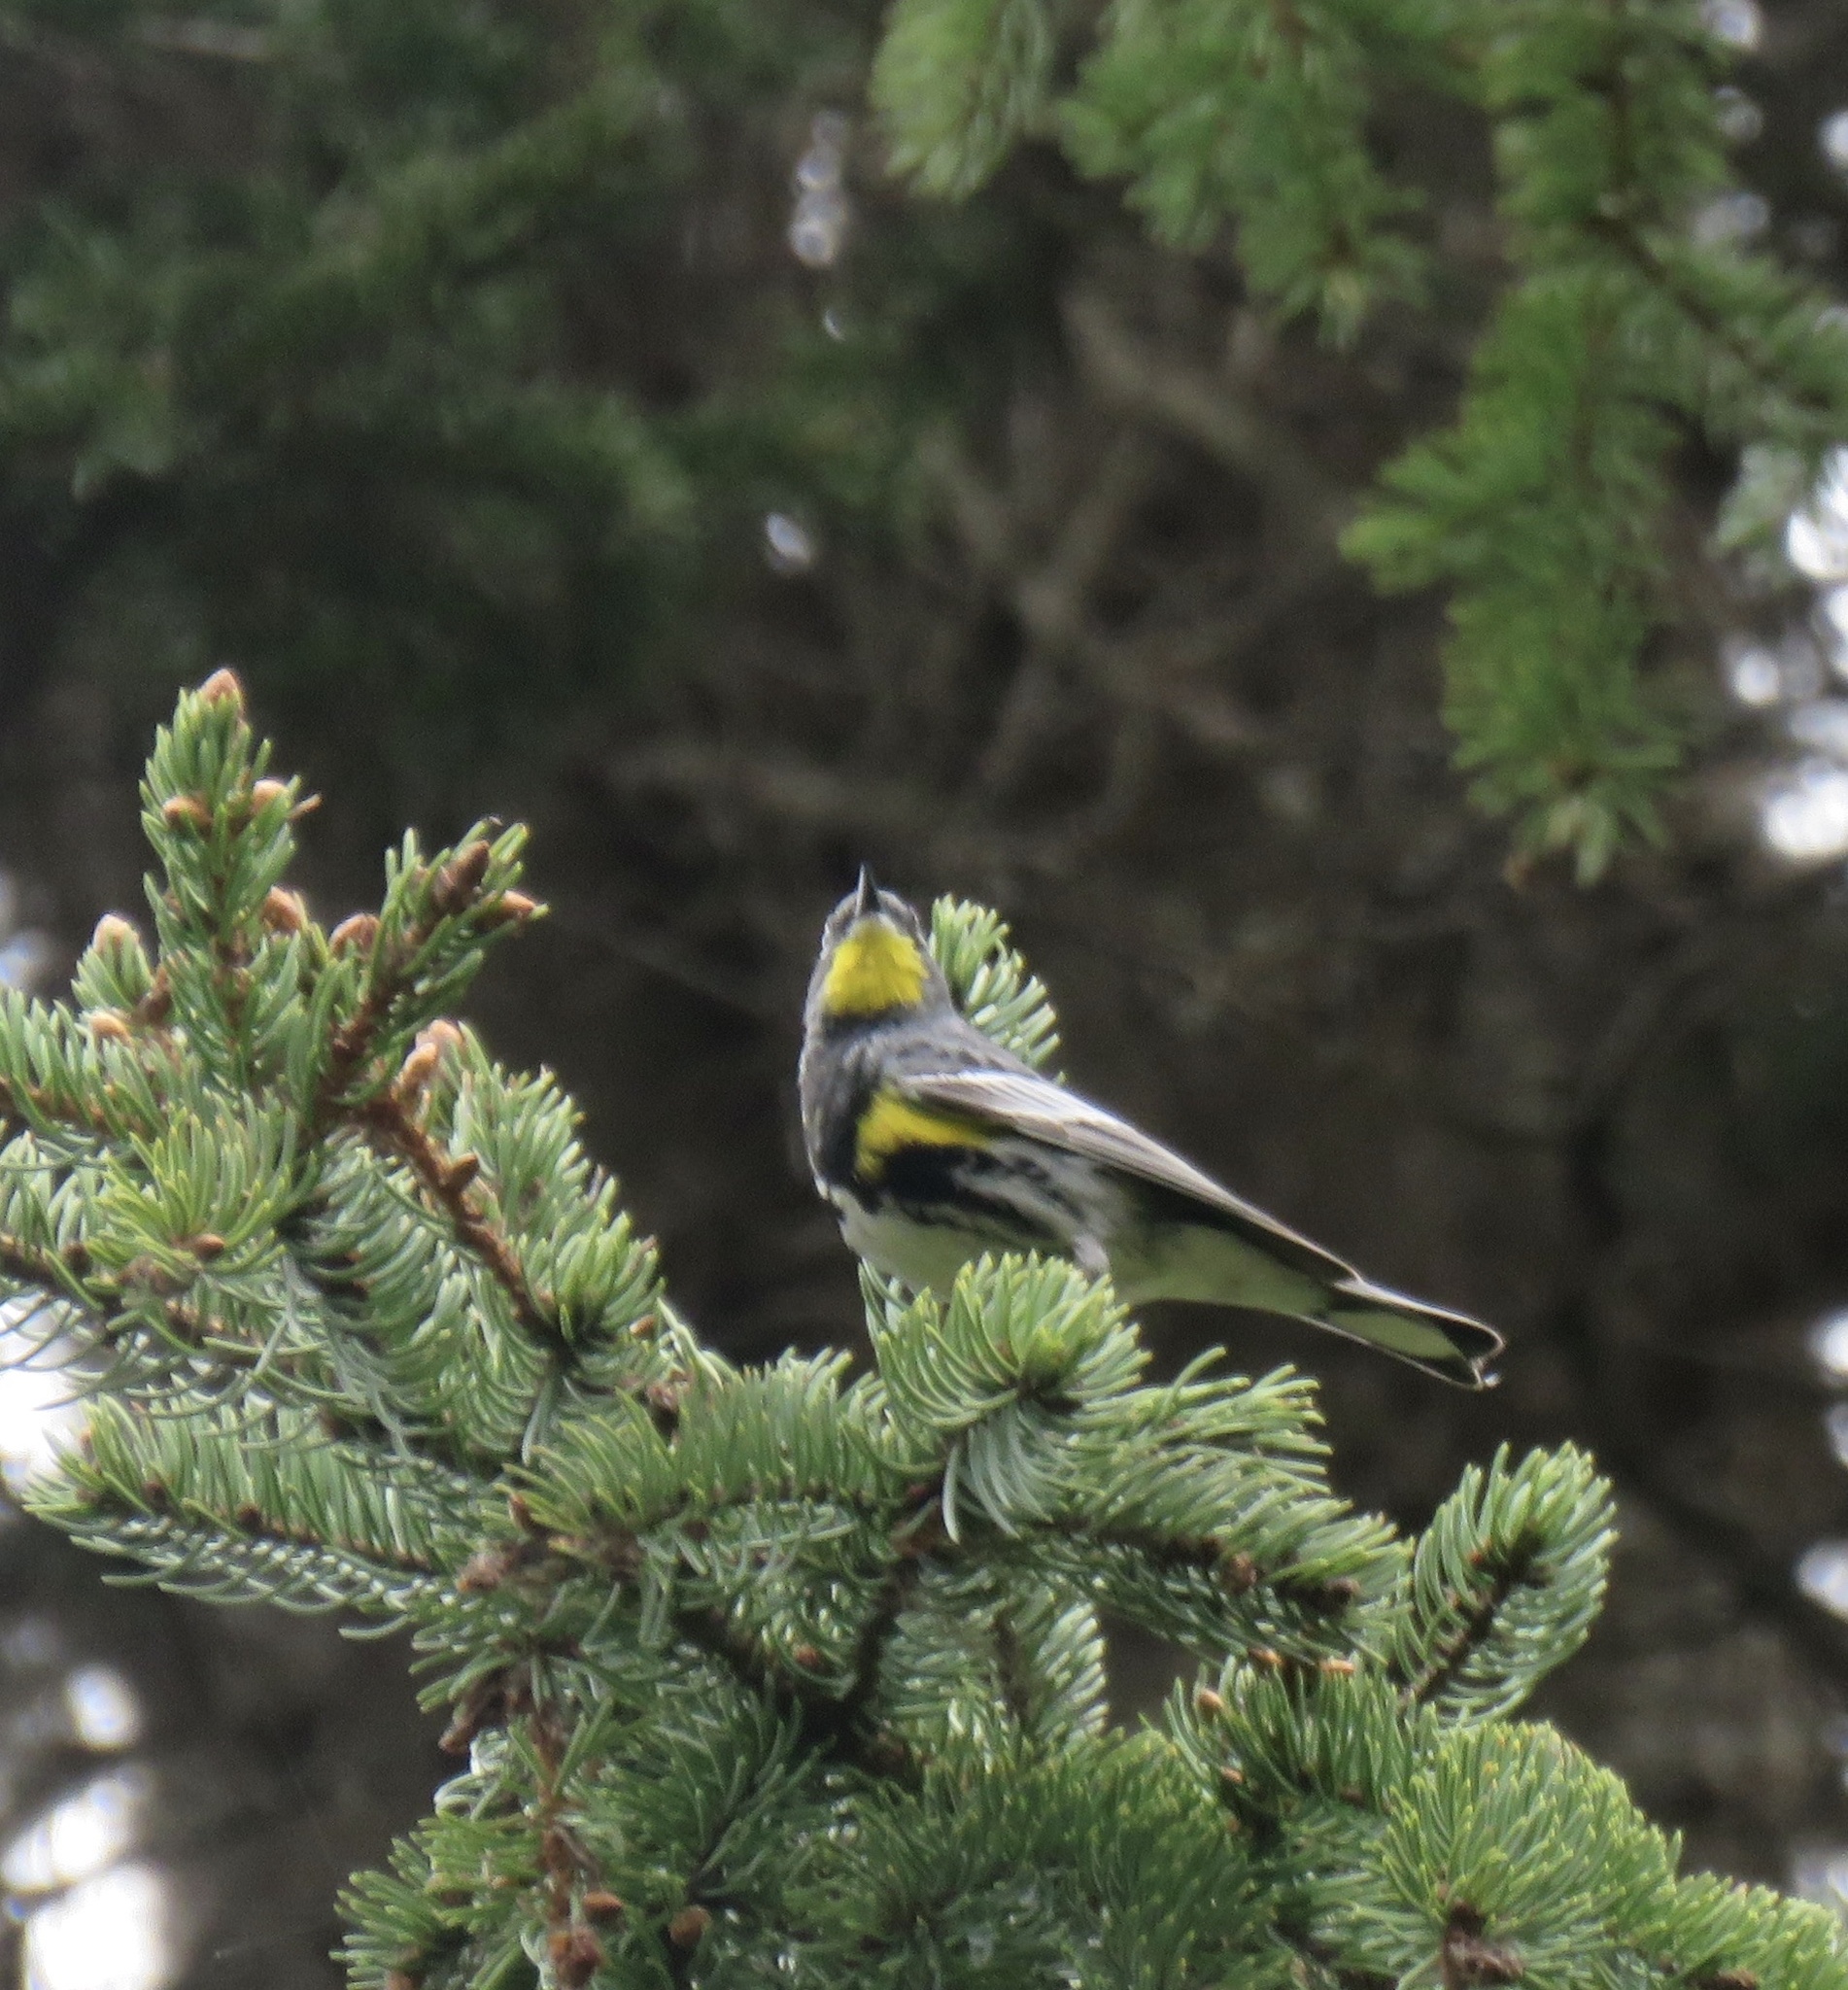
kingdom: Animalia
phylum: Chordata
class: Aves
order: Passeriformes
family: Parulidae
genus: Setophaga
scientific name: Setophaga auduboni
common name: Audubon's warbler
